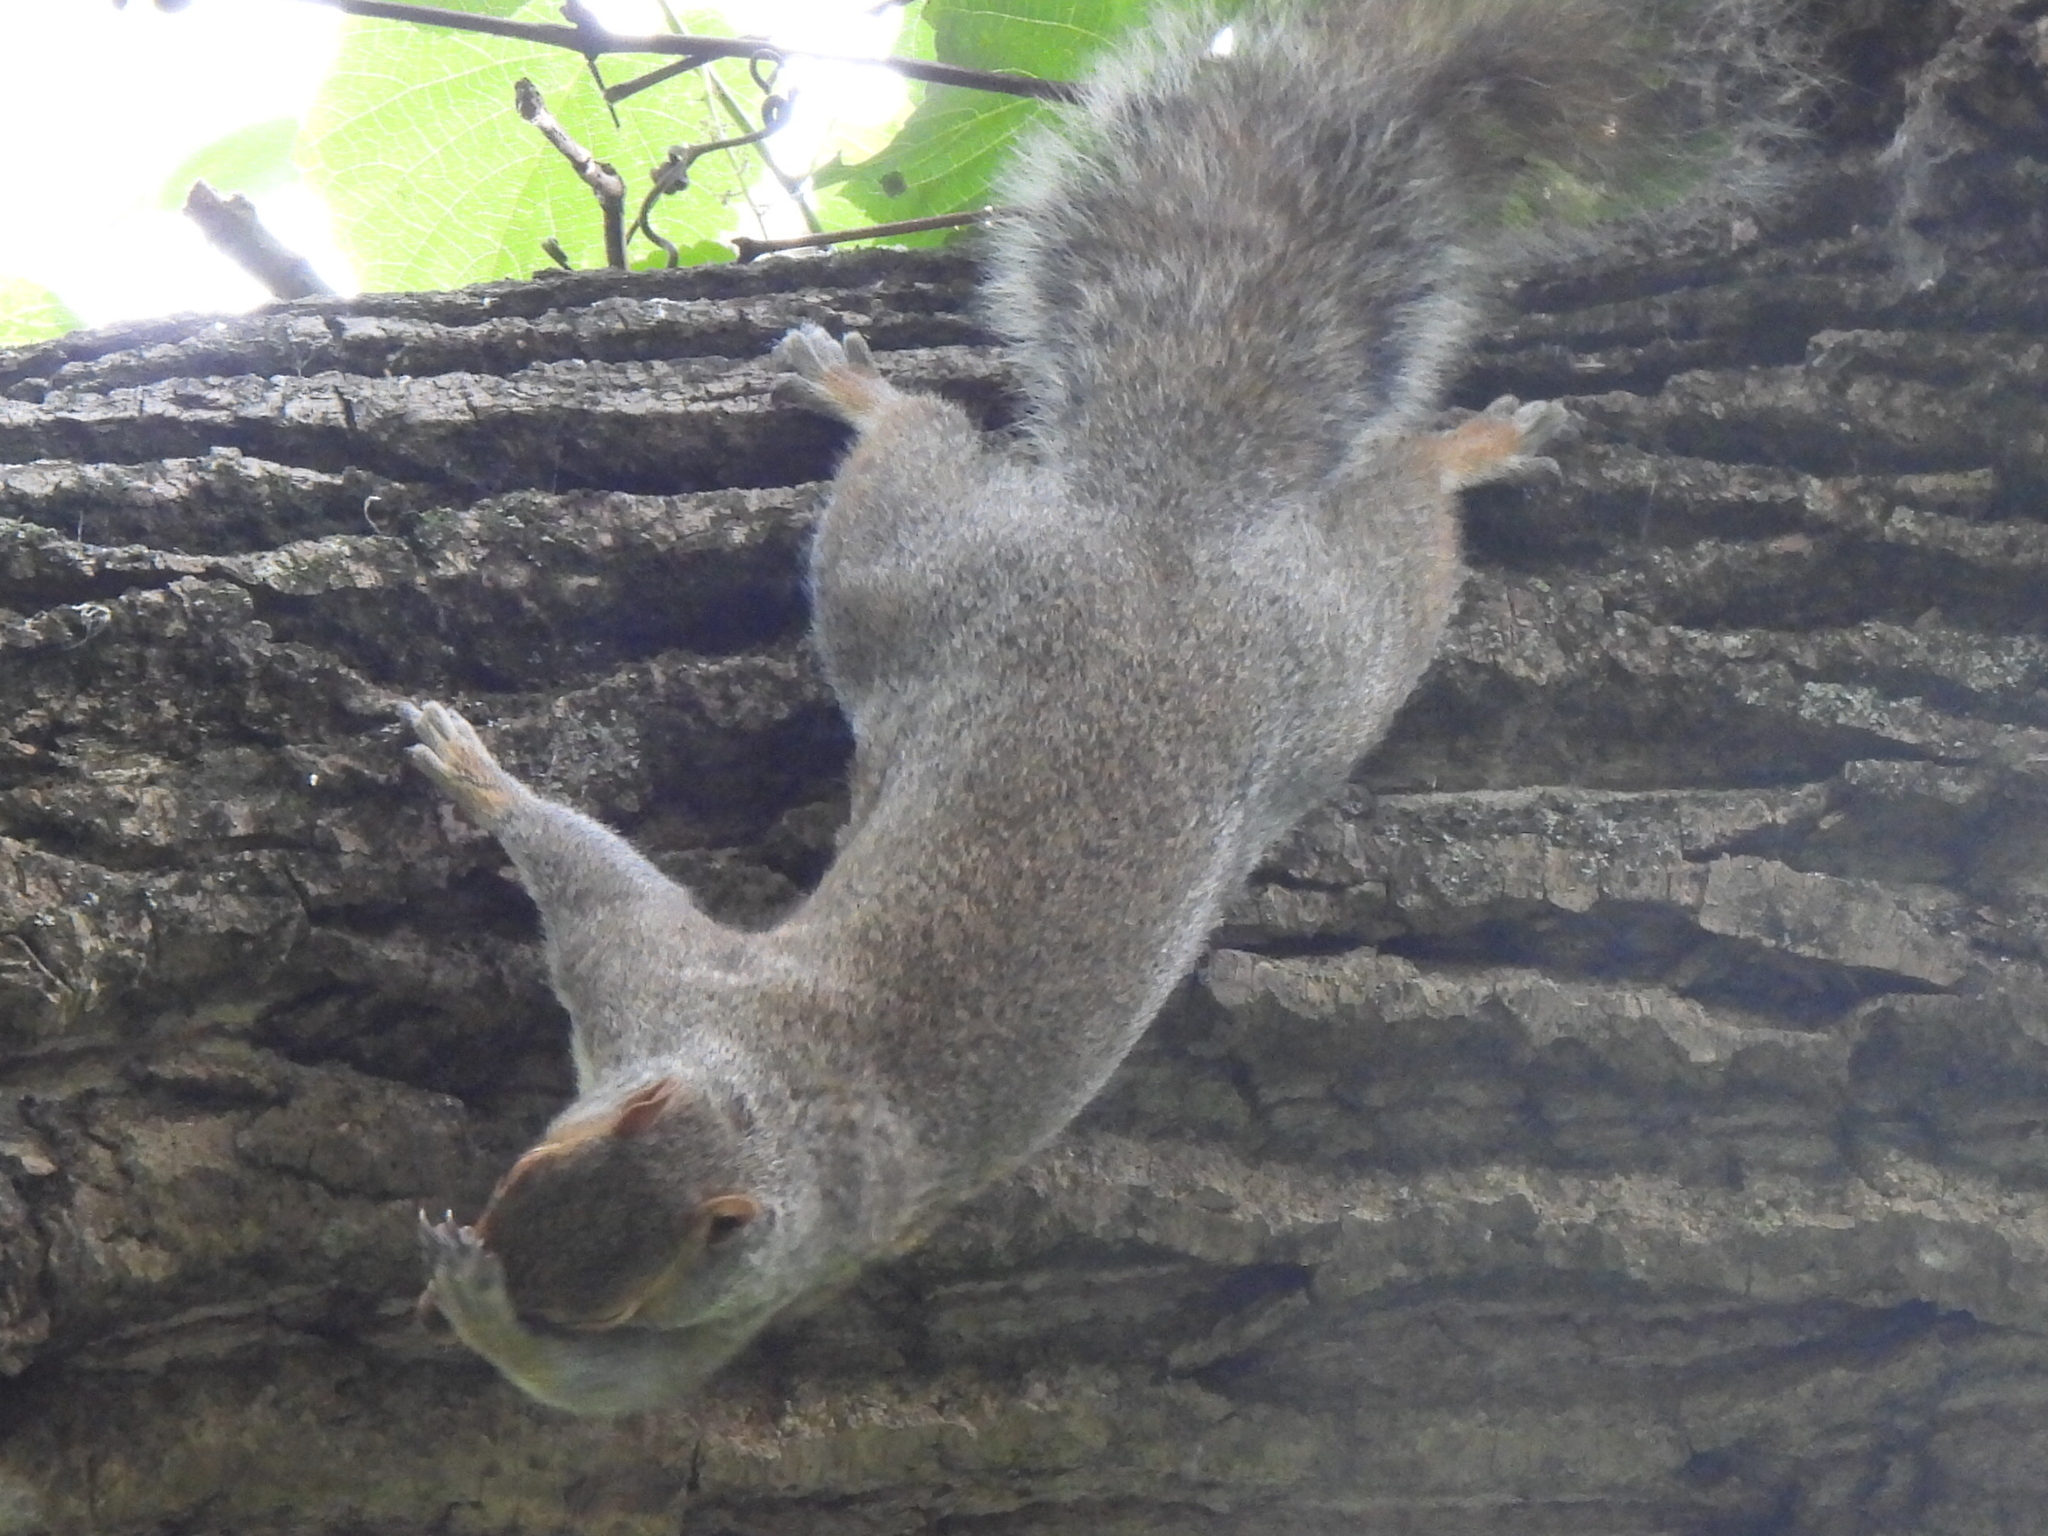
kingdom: Animalia
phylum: Chordata
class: Mammalia
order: Rodentia
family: Sciuridae
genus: Sciurus
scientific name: Sciurus carolinensis
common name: Eastern gray squirrel
